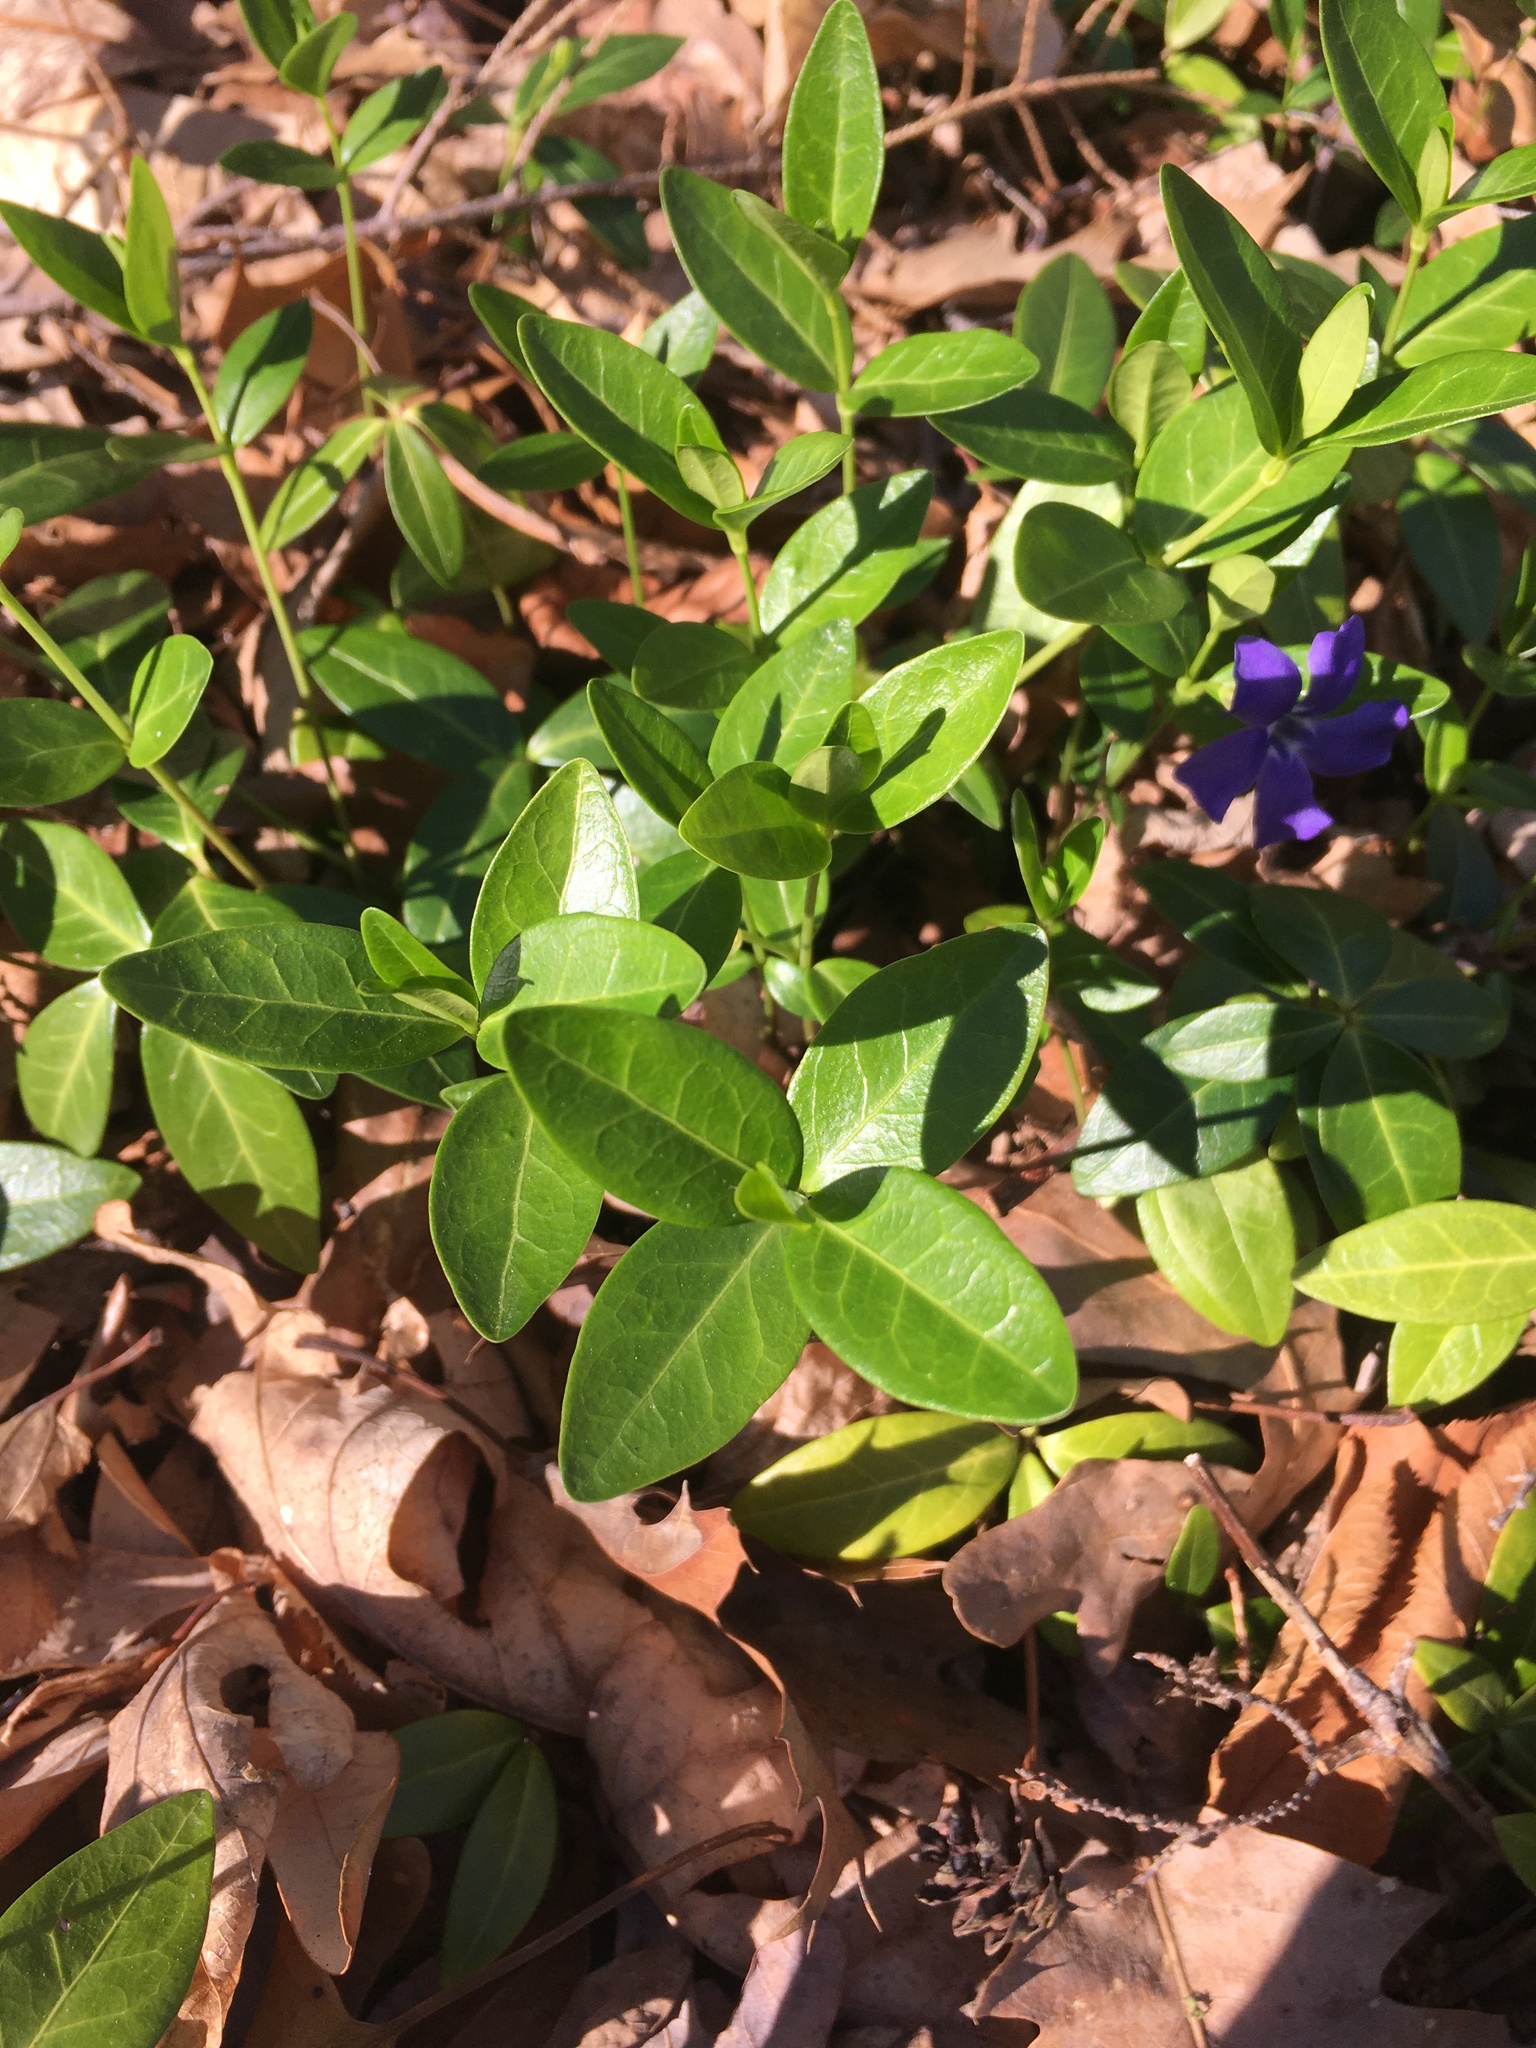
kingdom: Plantae
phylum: Tracheophyta
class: Magnoliopsida
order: Gentianales
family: Apocynaceae
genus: Vinca
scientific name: Vinca minor
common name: Lesser periwinkle
